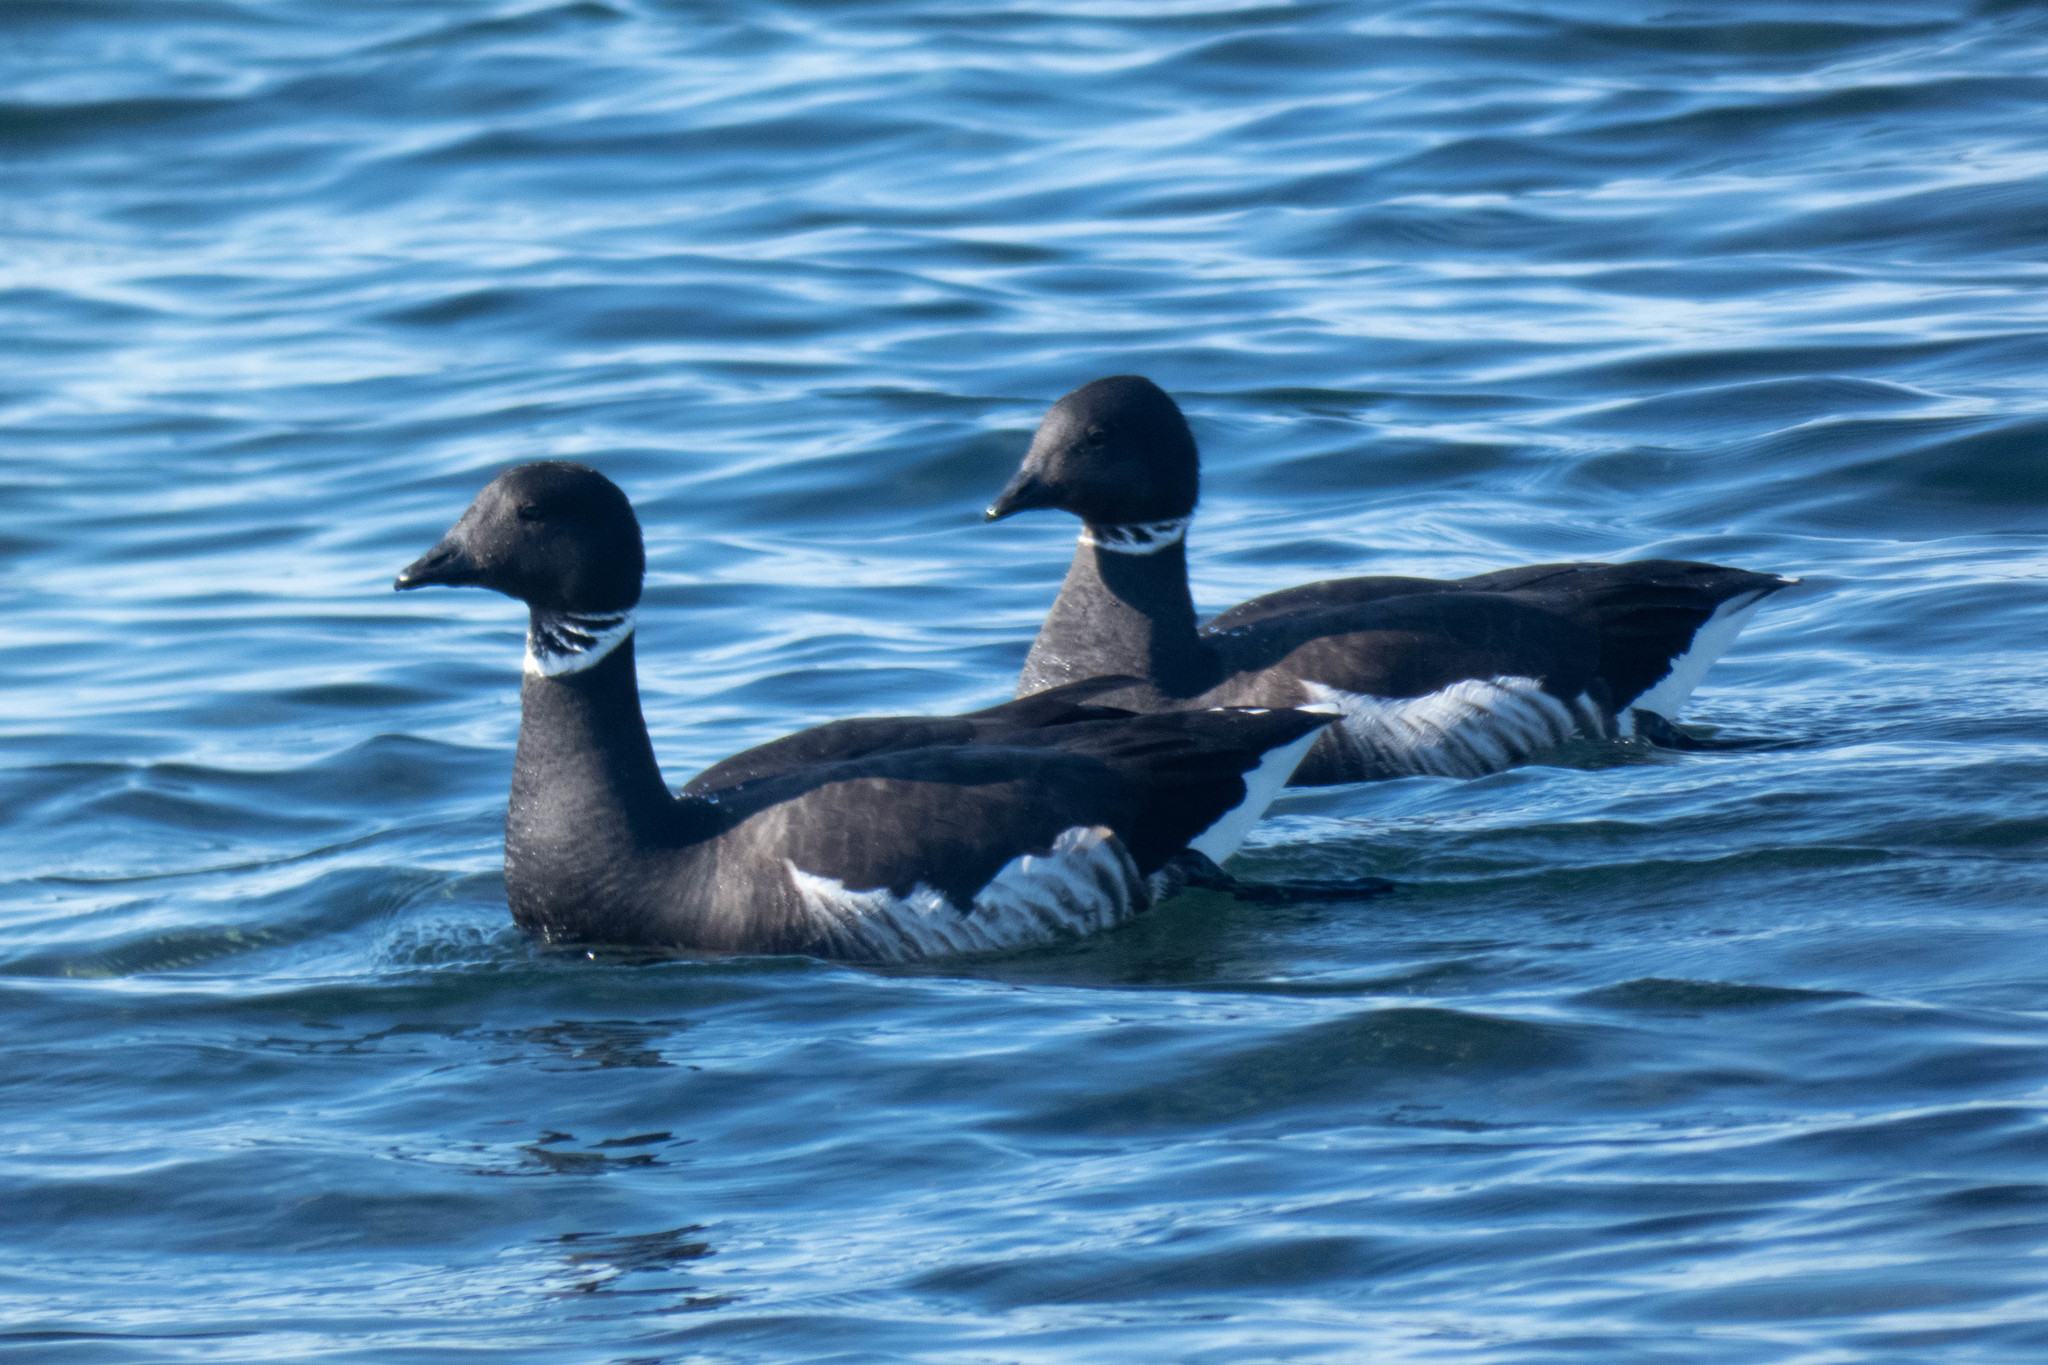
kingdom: Animalia
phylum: Chordata
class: Aves
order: Anseriformes
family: Anatidae
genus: Branta
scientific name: Branta bernicla
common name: Brant goose
